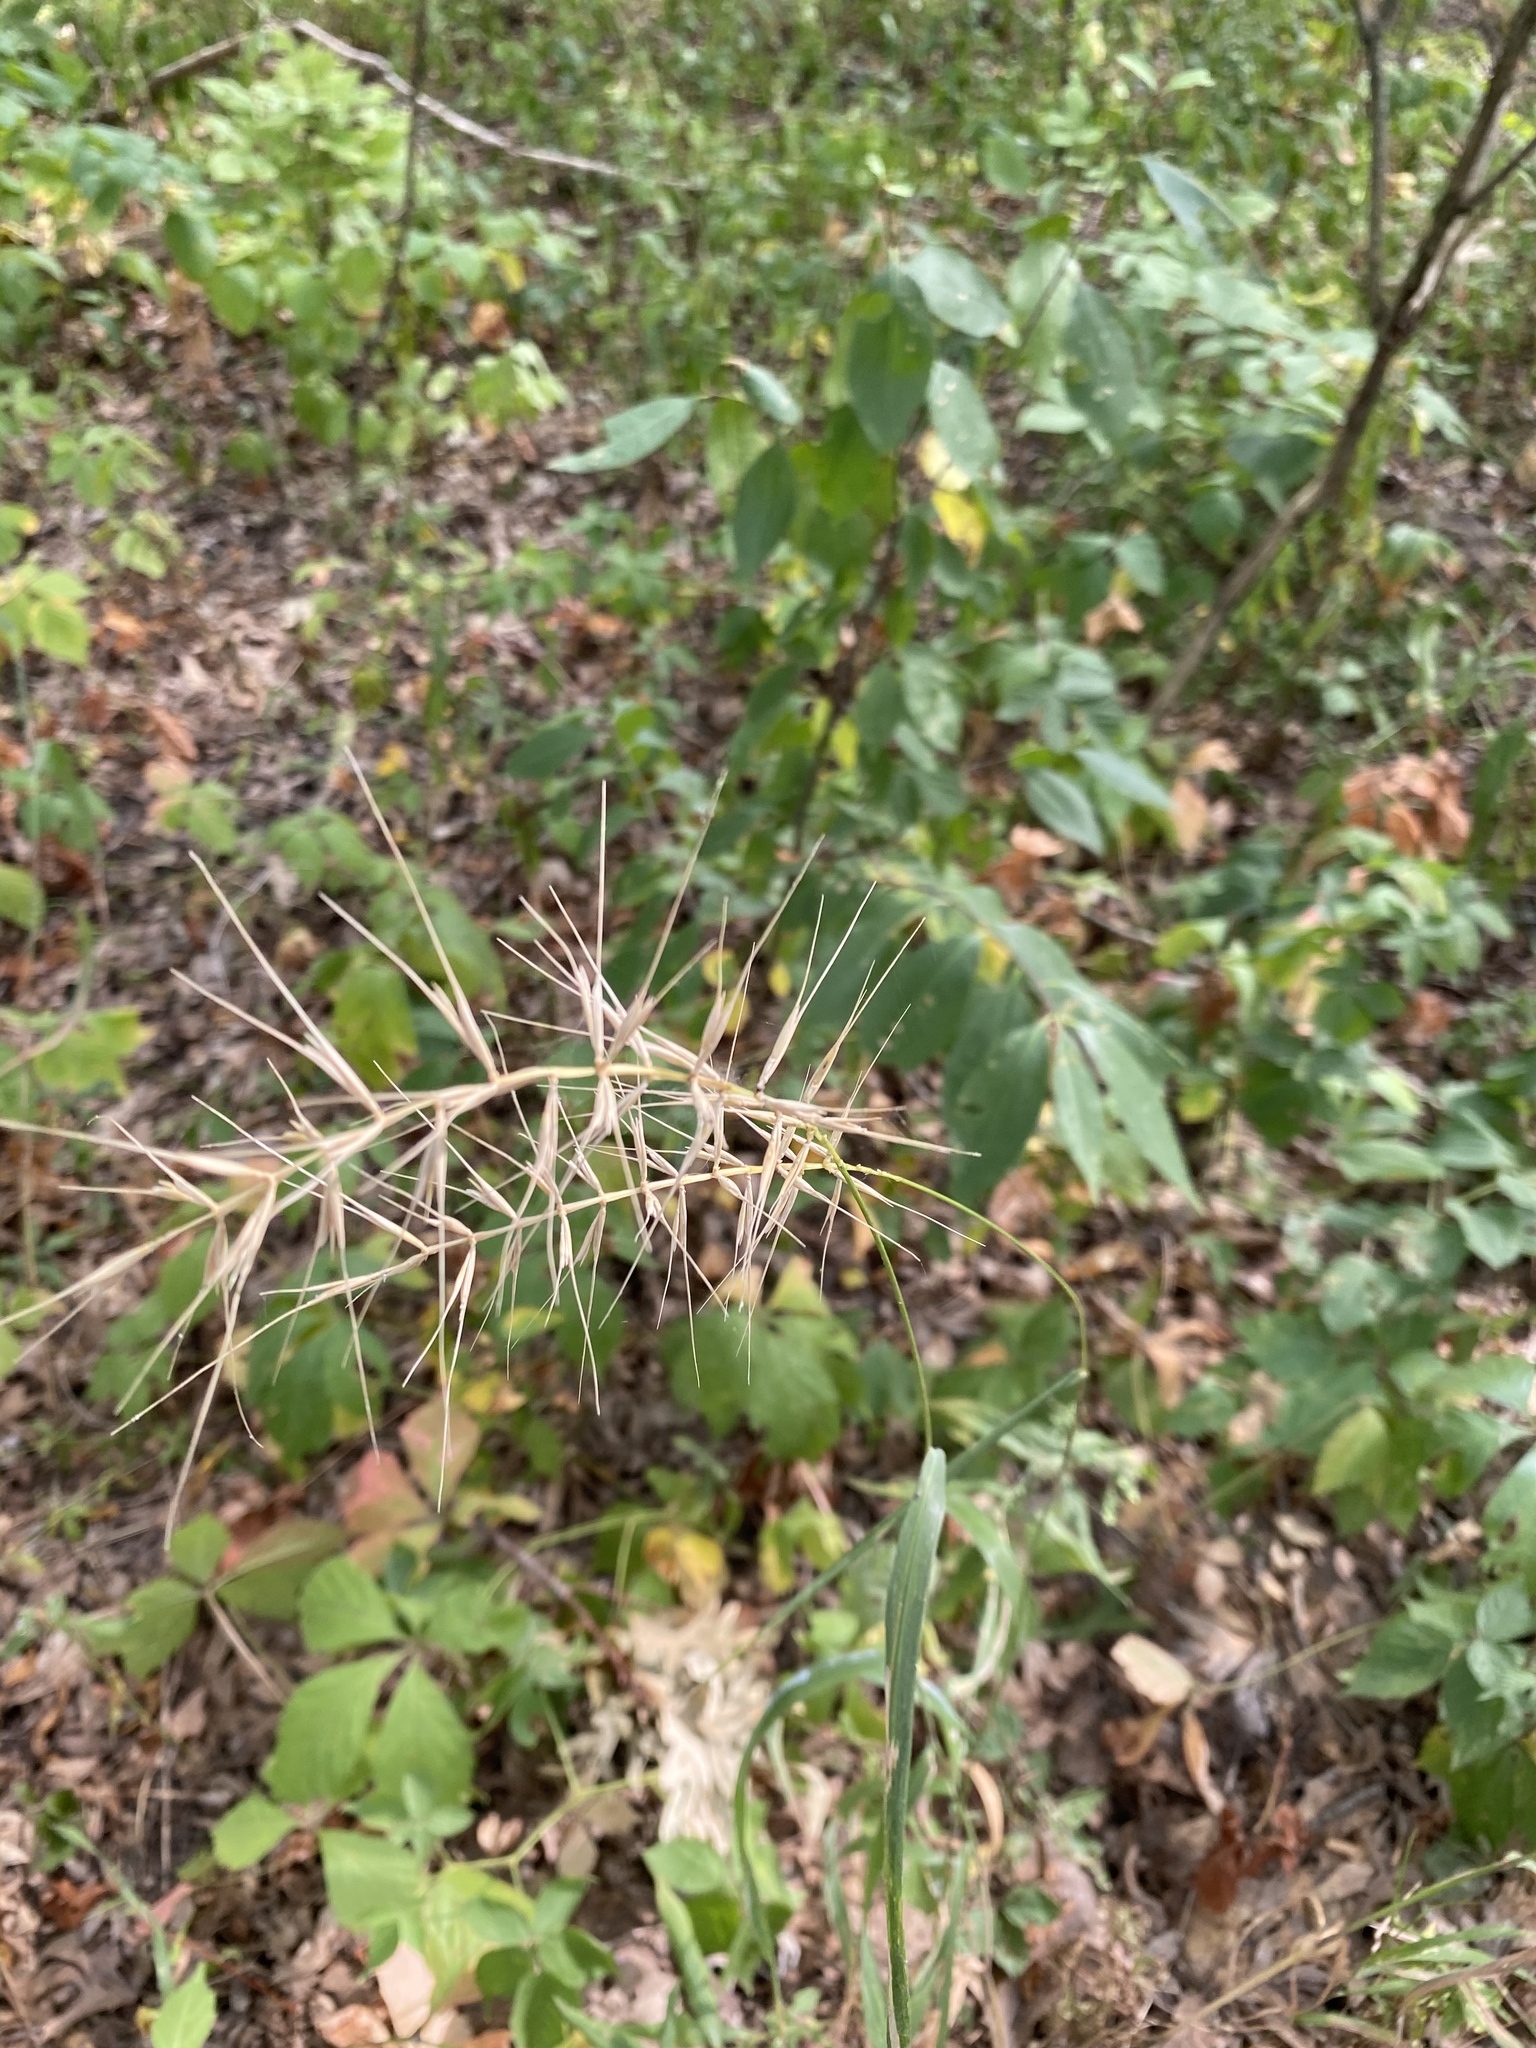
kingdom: Plantae
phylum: Tracheophyta
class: Liliopsida
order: Poales
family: Poaceae
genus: Elymus
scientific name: Elymus hystrix
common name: Bottlebrush grass
